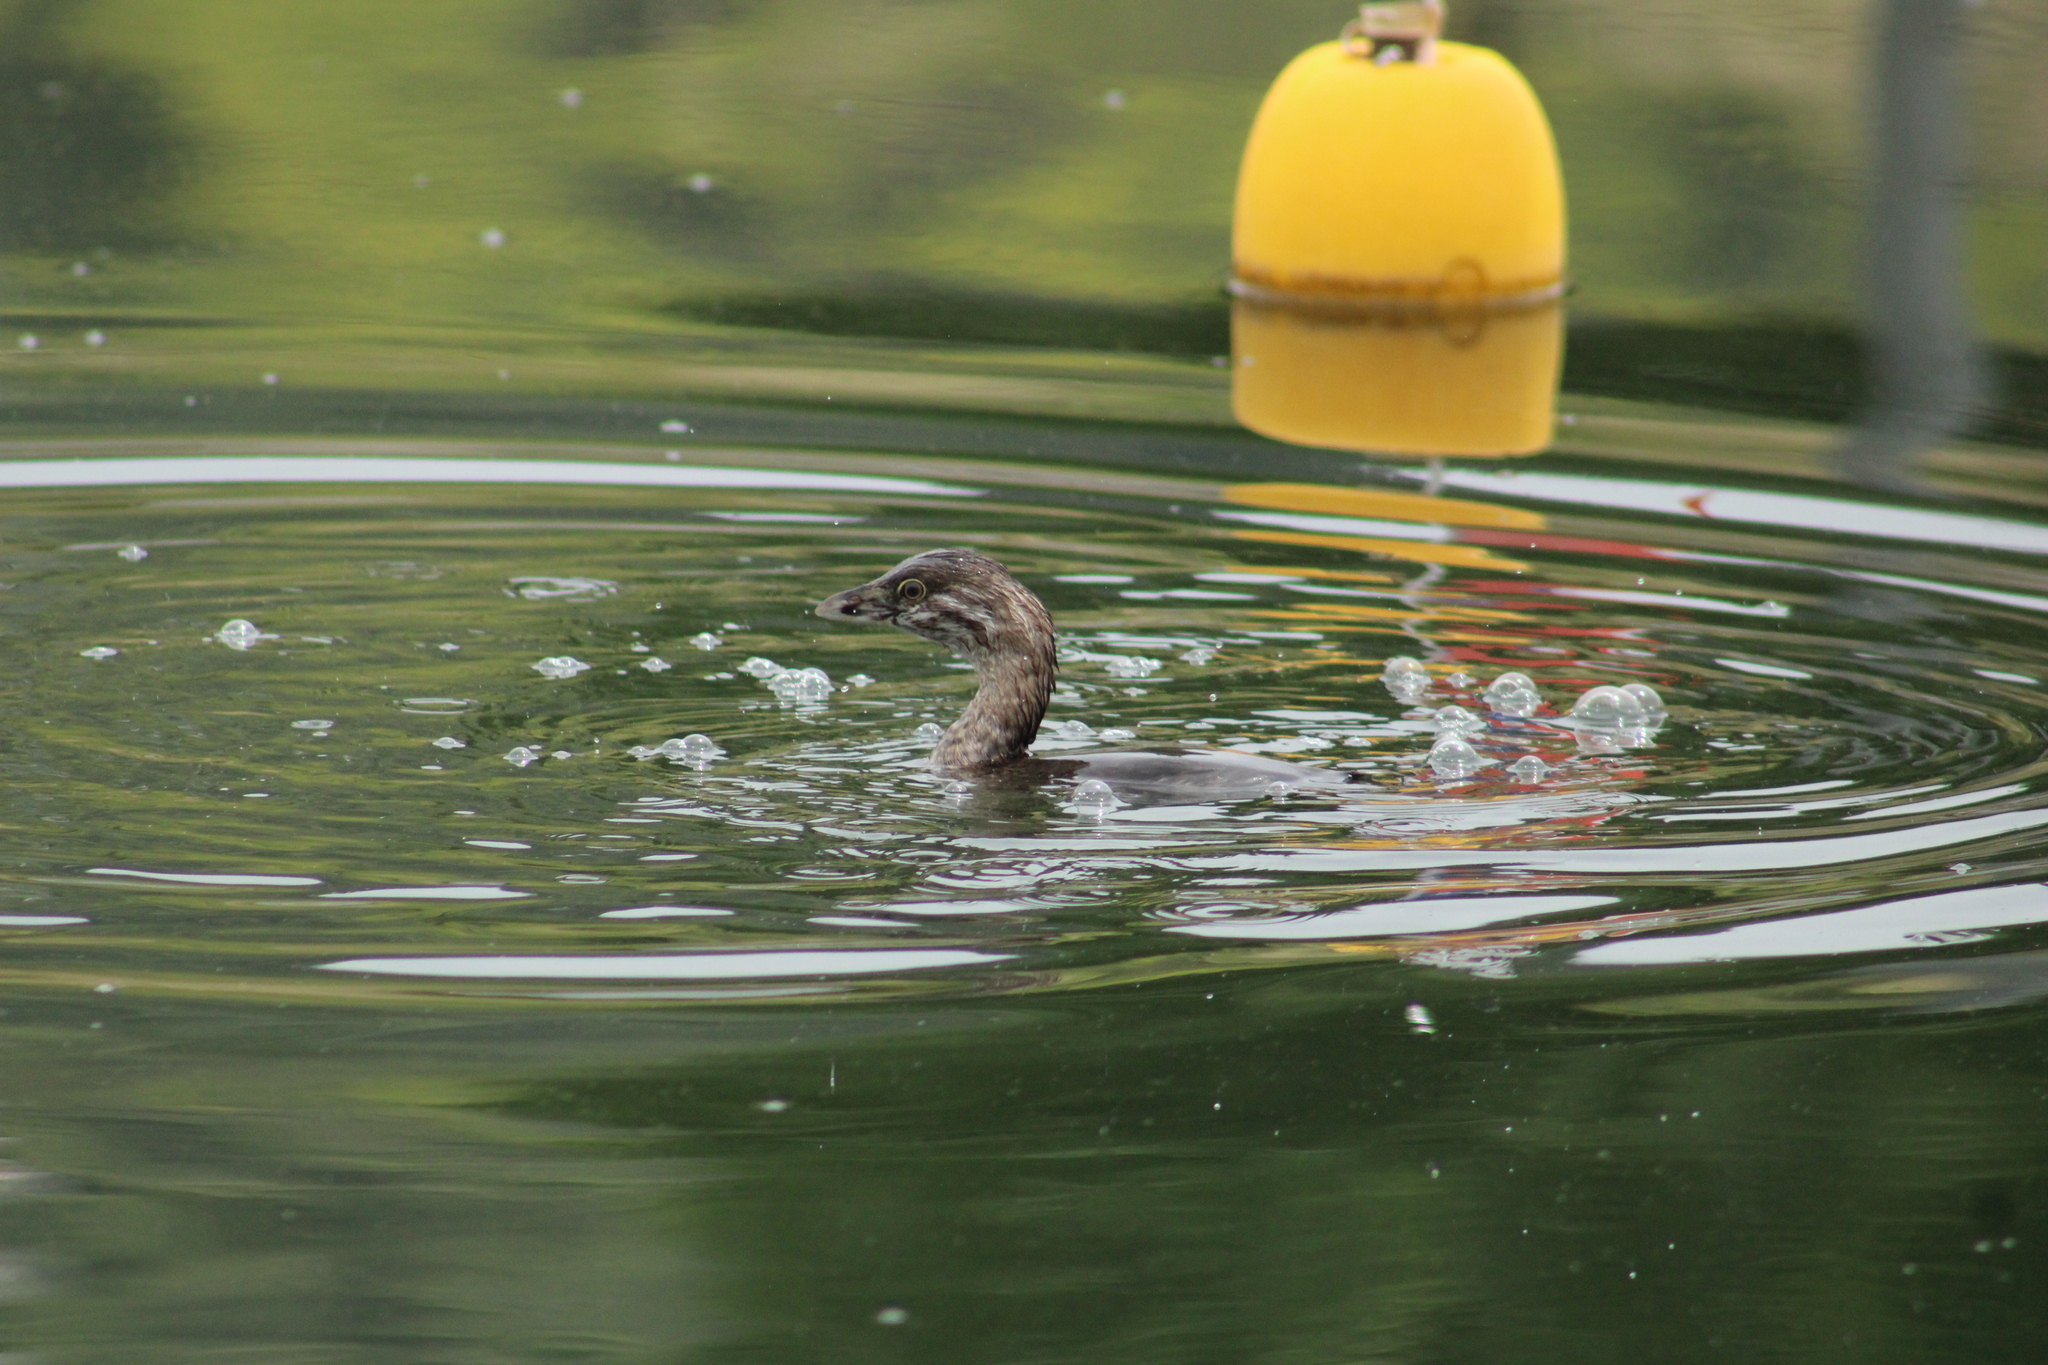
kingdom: Animalia
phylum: Chordata
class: Aves
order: Podicipediformes
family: Podicipedidae
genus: Podilymbus
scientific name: Podilymbus podiceps
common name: Pied-billed grebe
